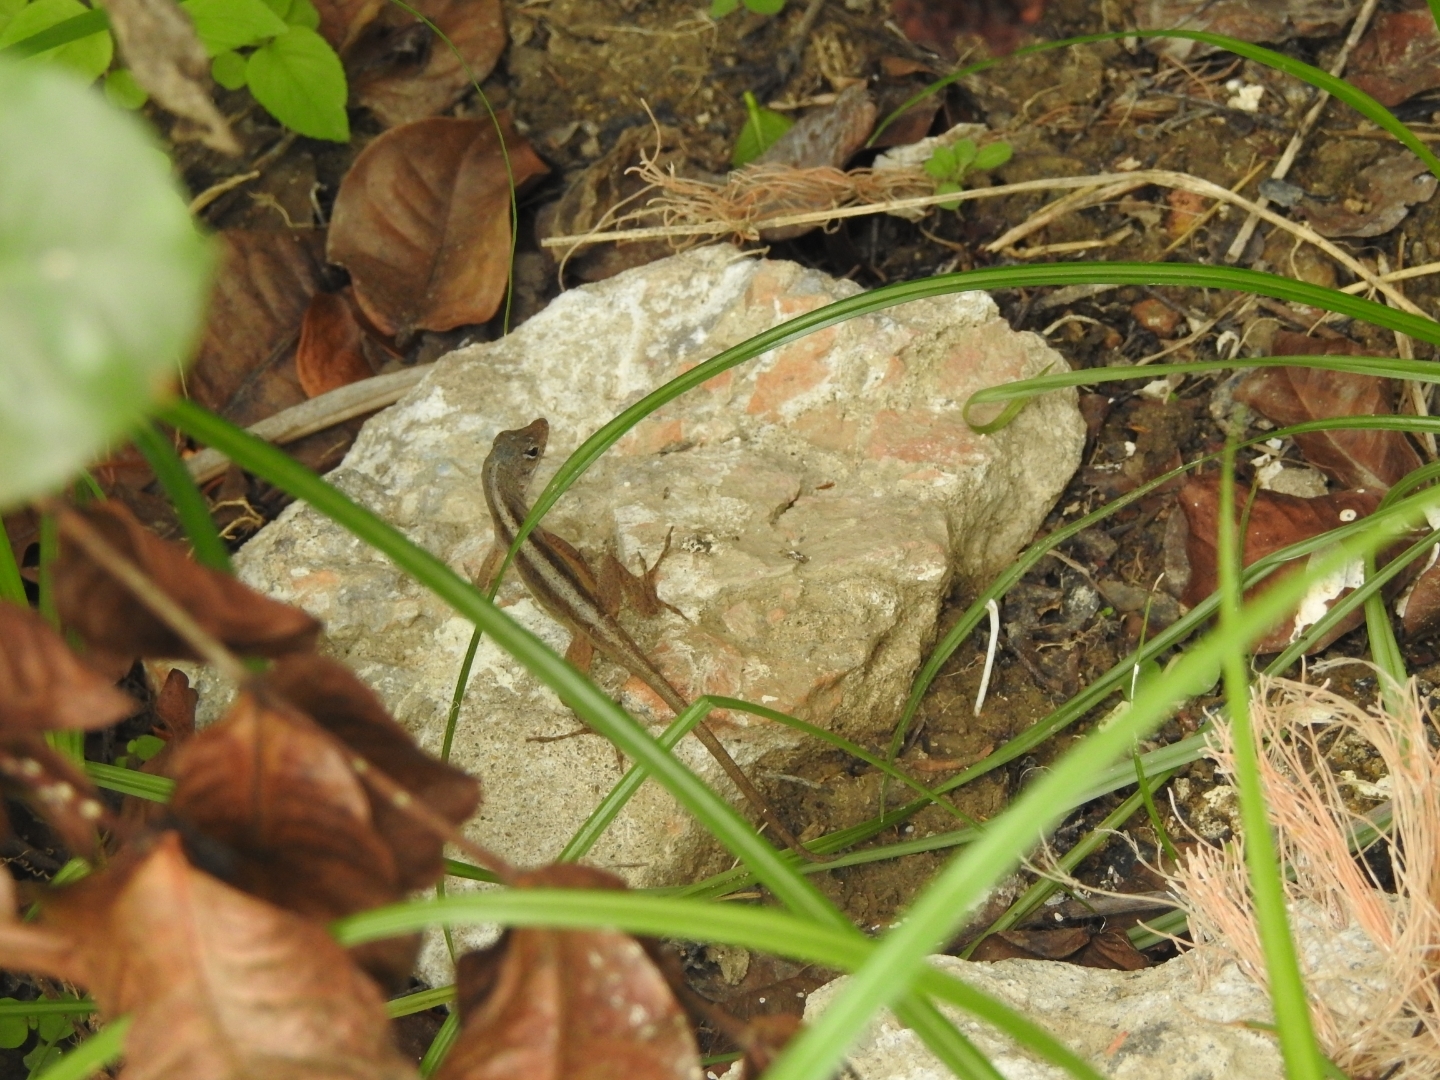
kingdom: Animalia
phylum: Chordata
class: Squamata
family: Dactyloidae
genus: Anolis
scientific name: Anolis sagrei
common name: Brown anole
